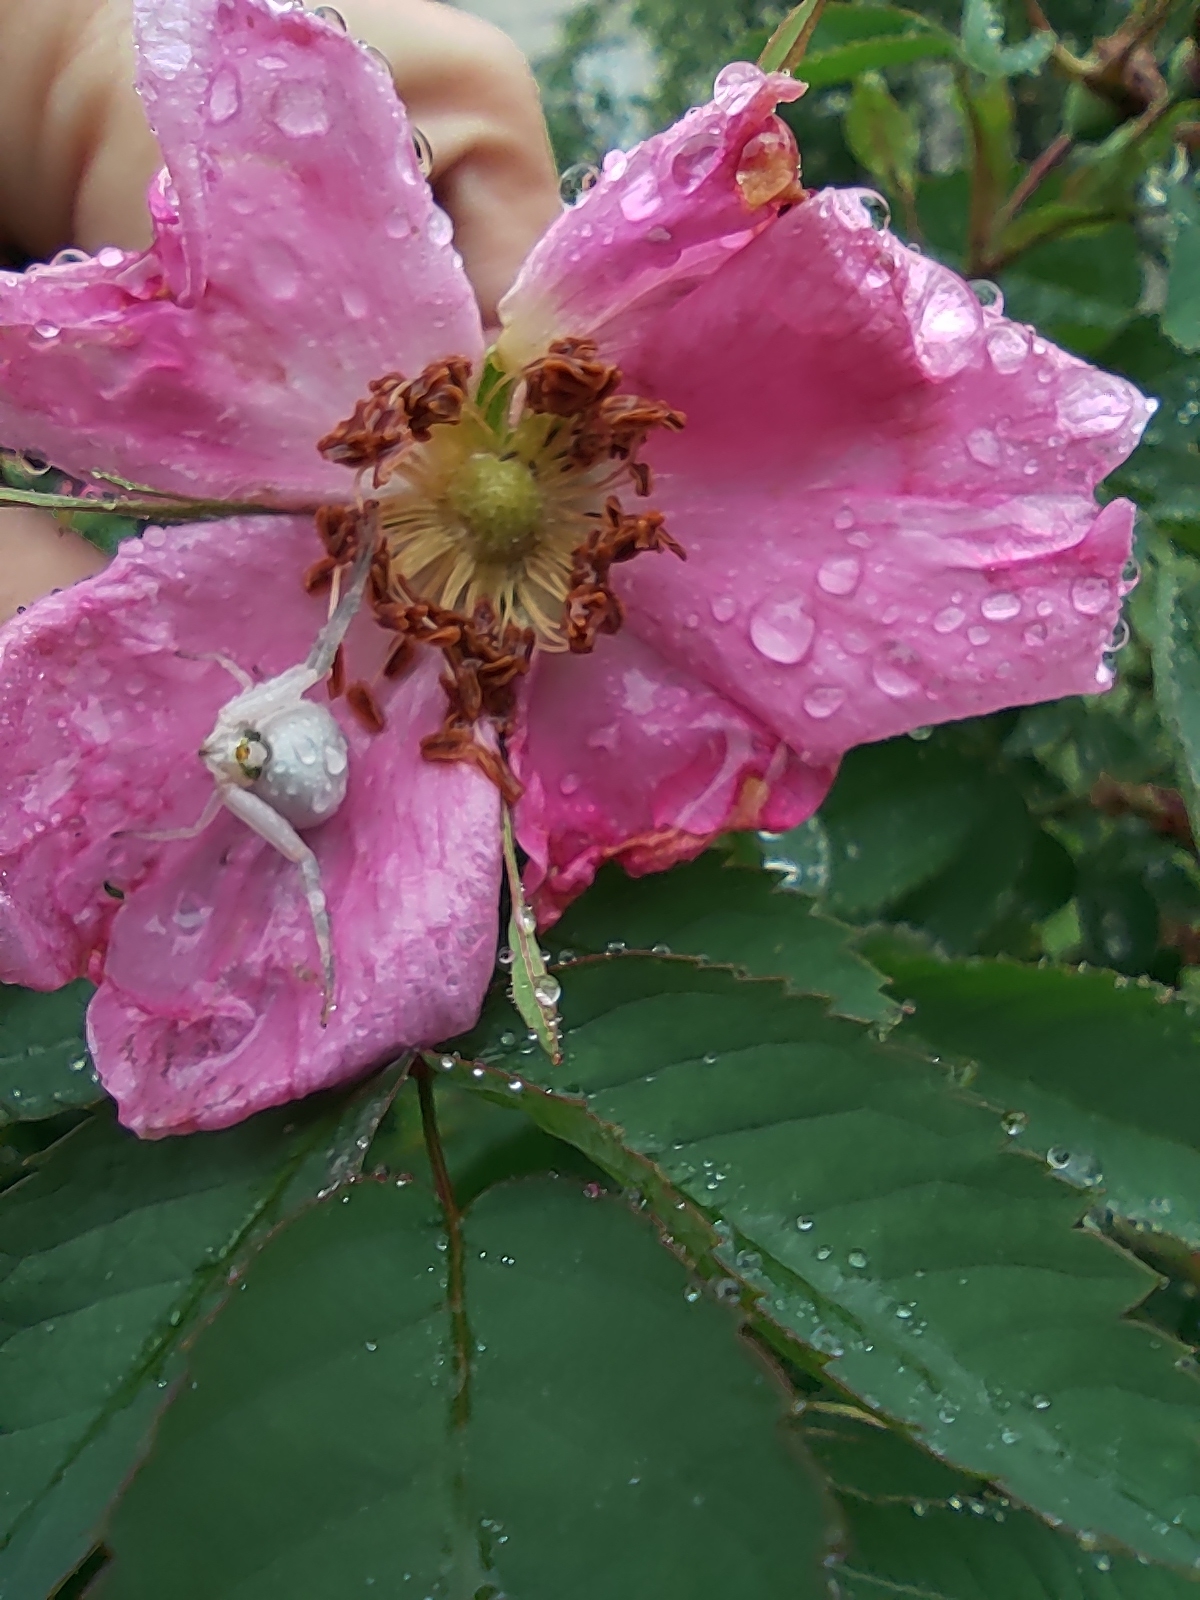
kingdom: Animalia
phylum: Arthropoda
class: Arachnida
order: Araneae
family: Thomisidae
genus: Misumena
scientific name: Misumena vatia
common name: Goldenrod crab spider
